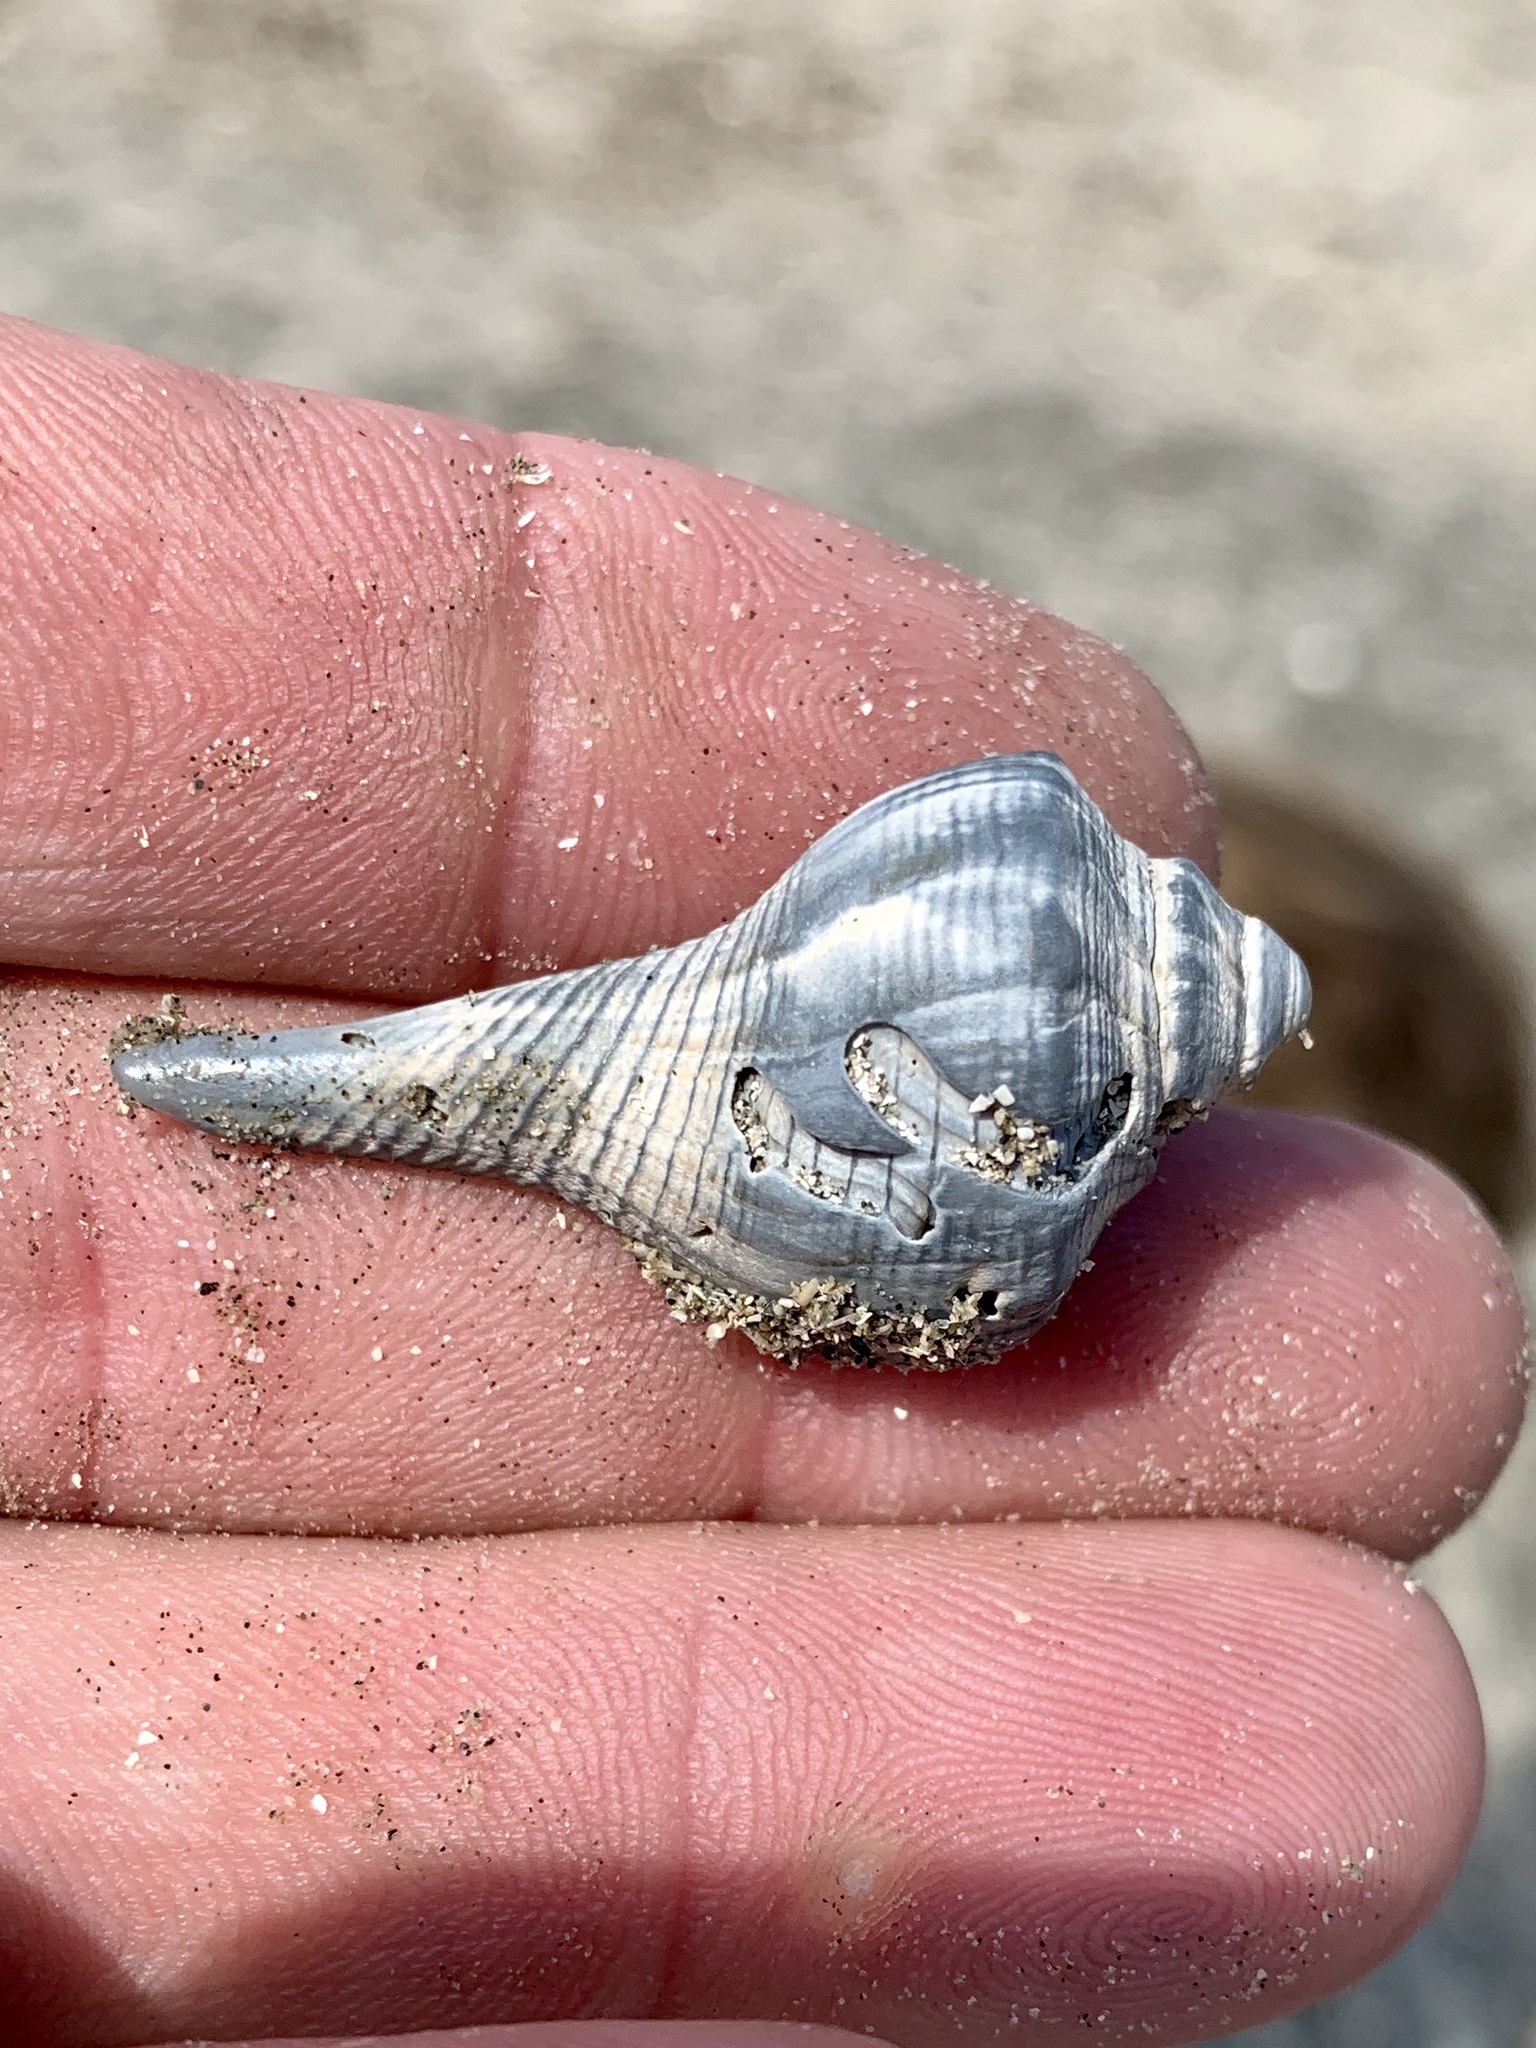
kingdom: Animalia
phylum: Mollusca
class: Gastropoda
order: Neogastropoda
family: Busyconidae
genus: Sinistrofulgur
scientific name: Sinistrofulgur pulleyi
